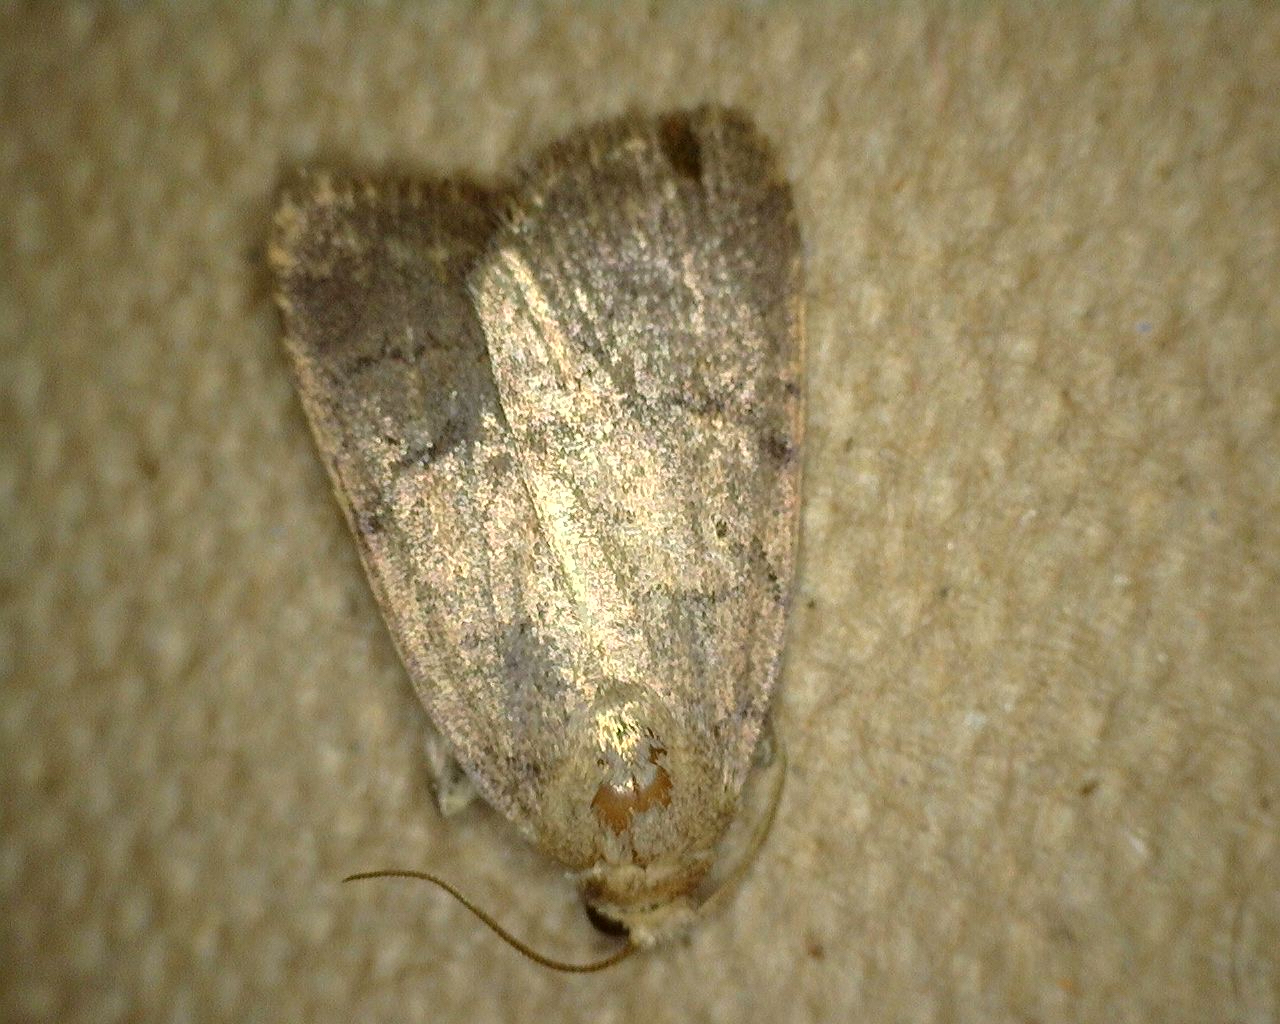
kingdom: Animalia
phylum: Arthropoda
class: Insecta
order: Lepidoptera
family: Noctuidae
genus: Athetis
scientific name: Athetis tarda
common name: Slowpoke moth
